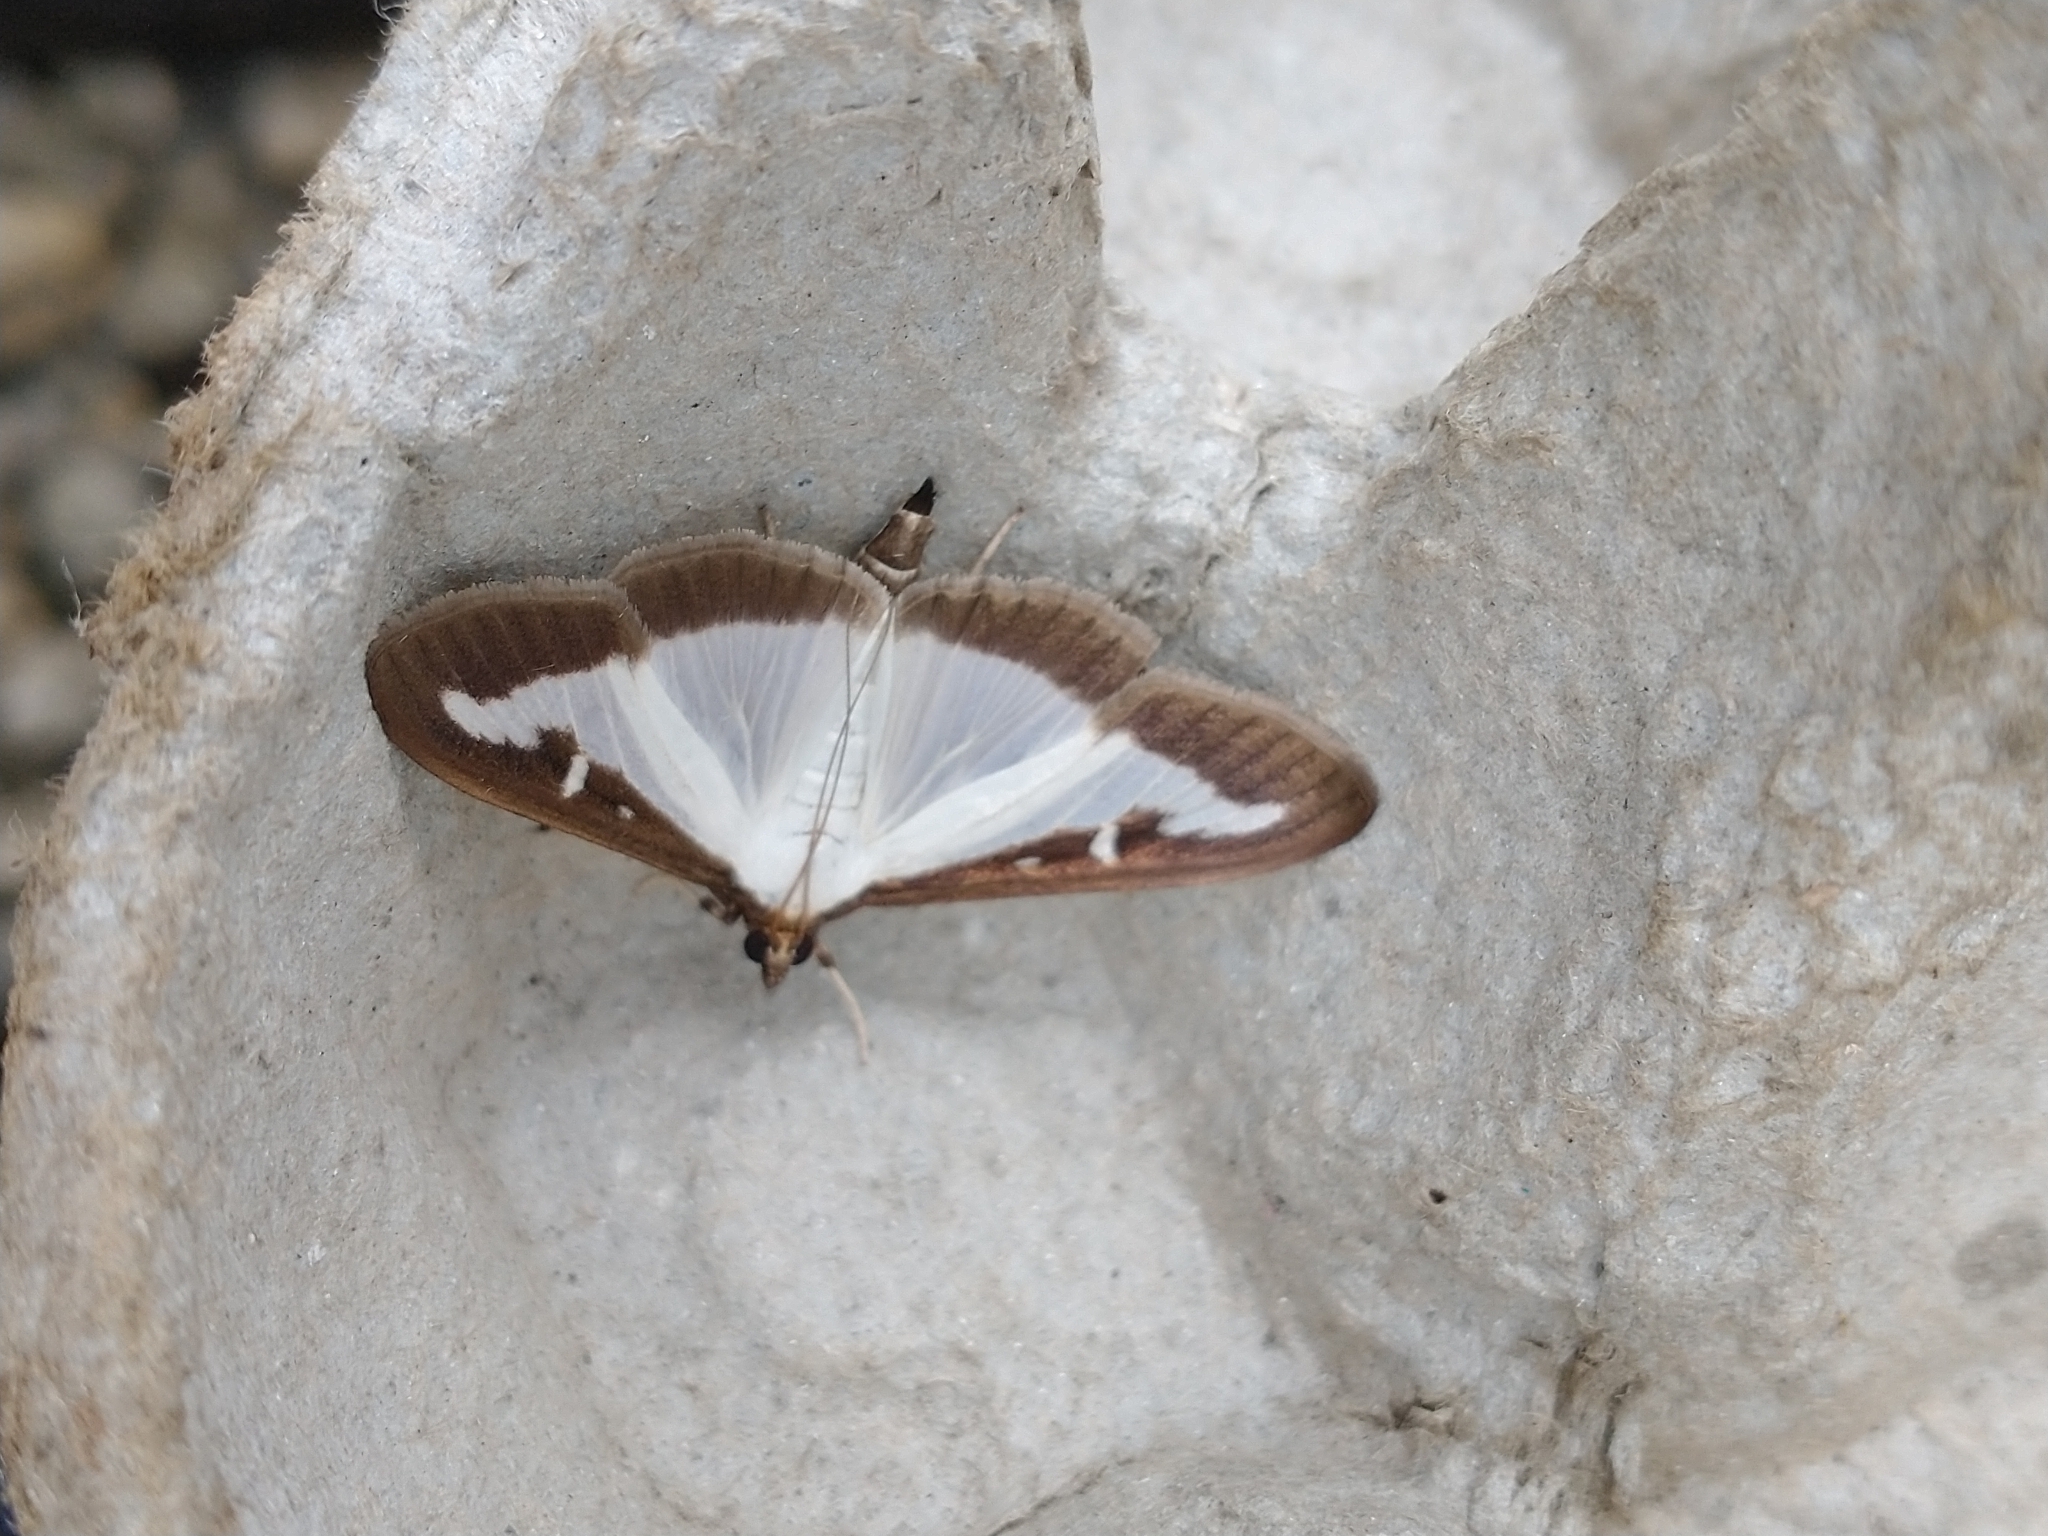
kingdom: Animalia
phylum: Arthropoda
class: Insecta
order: Lepidoptera
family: Crambidae
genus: Cydalima
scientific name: Cydalima perspectalis
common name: Box tree moth
